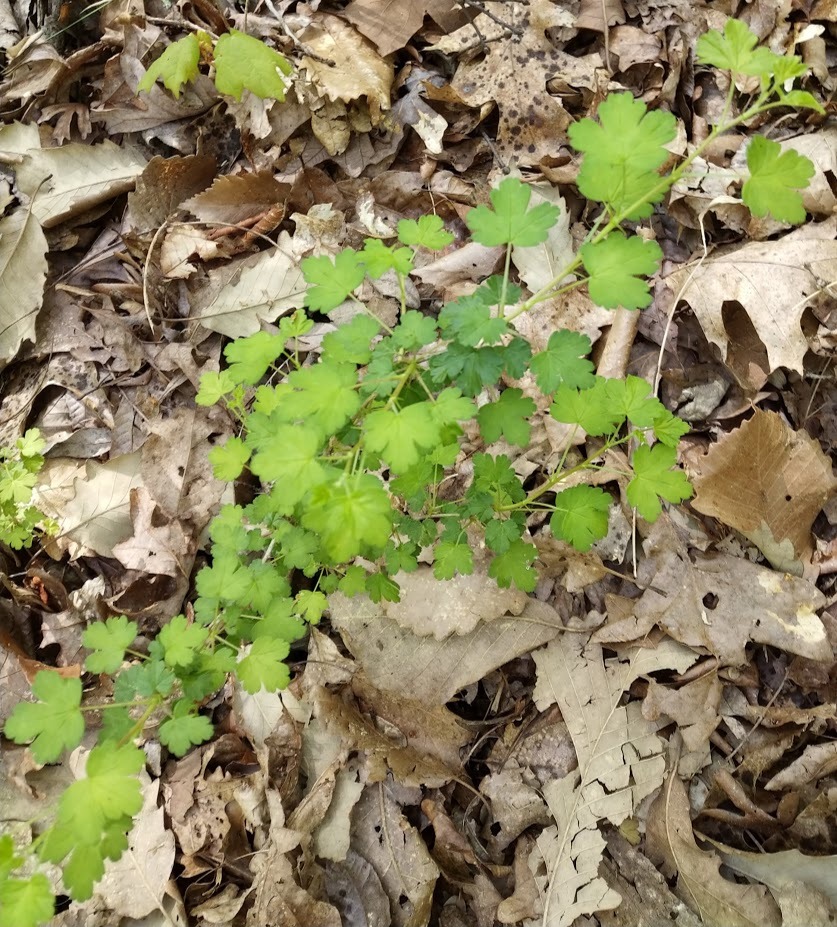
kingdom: Plantae
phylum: Tracheophyta
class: Magnoliopsida
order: Saxifragales
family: Grossulariaceae
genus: Ribes
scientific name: Ribes echinellum
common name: Miccosukee gooseberry
